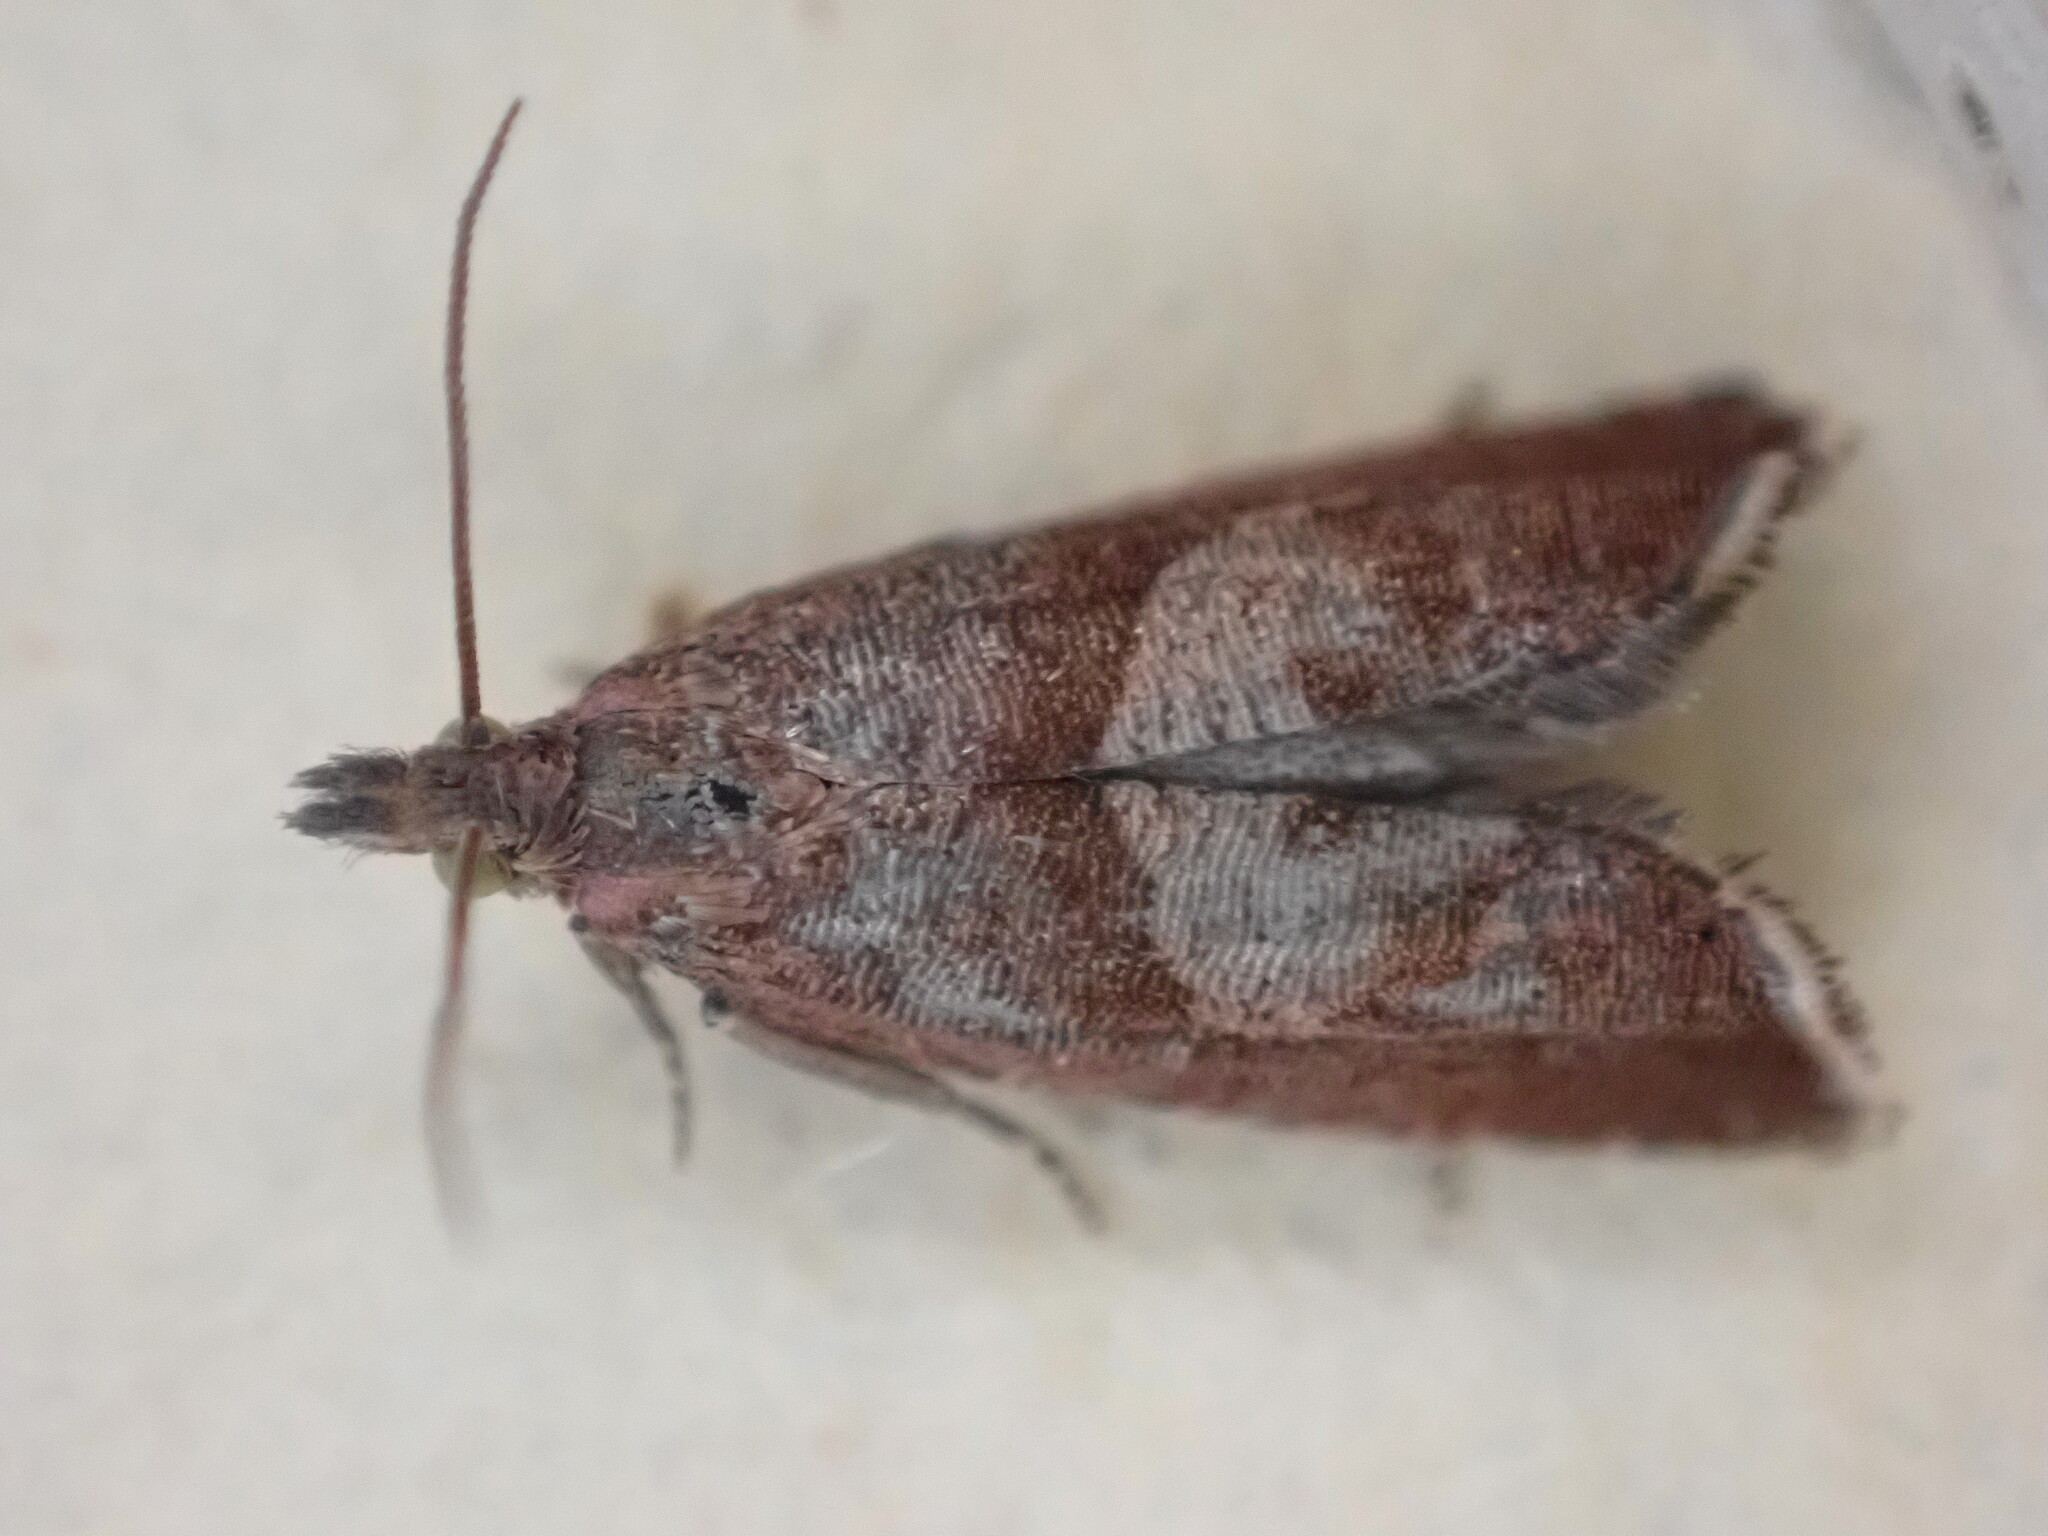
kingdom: Animalia
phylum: Arthropoda
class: Insecta
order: Lepidoptera
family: Tortricidae
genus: Dichrorampha
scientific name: Dichrorampha acuminatana
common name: Sharp-winged drill
